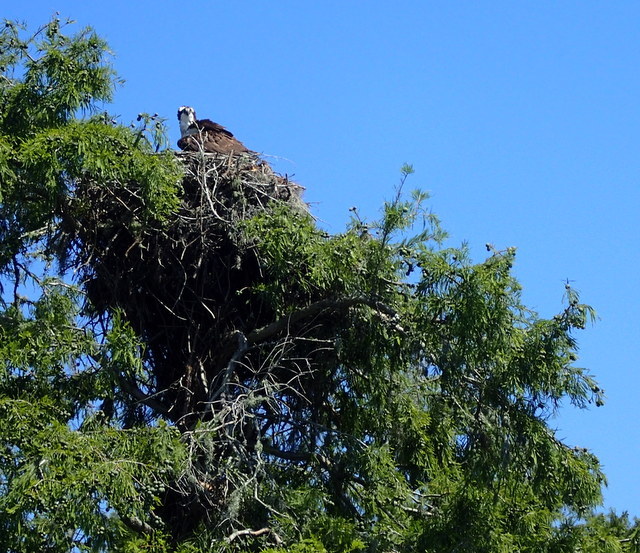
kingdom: Animalia
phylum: Chordata
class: Aves
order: Accipitriformes
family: Pandionidae
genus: Pandion
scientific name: Pandion haliaetus
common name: Osprey
